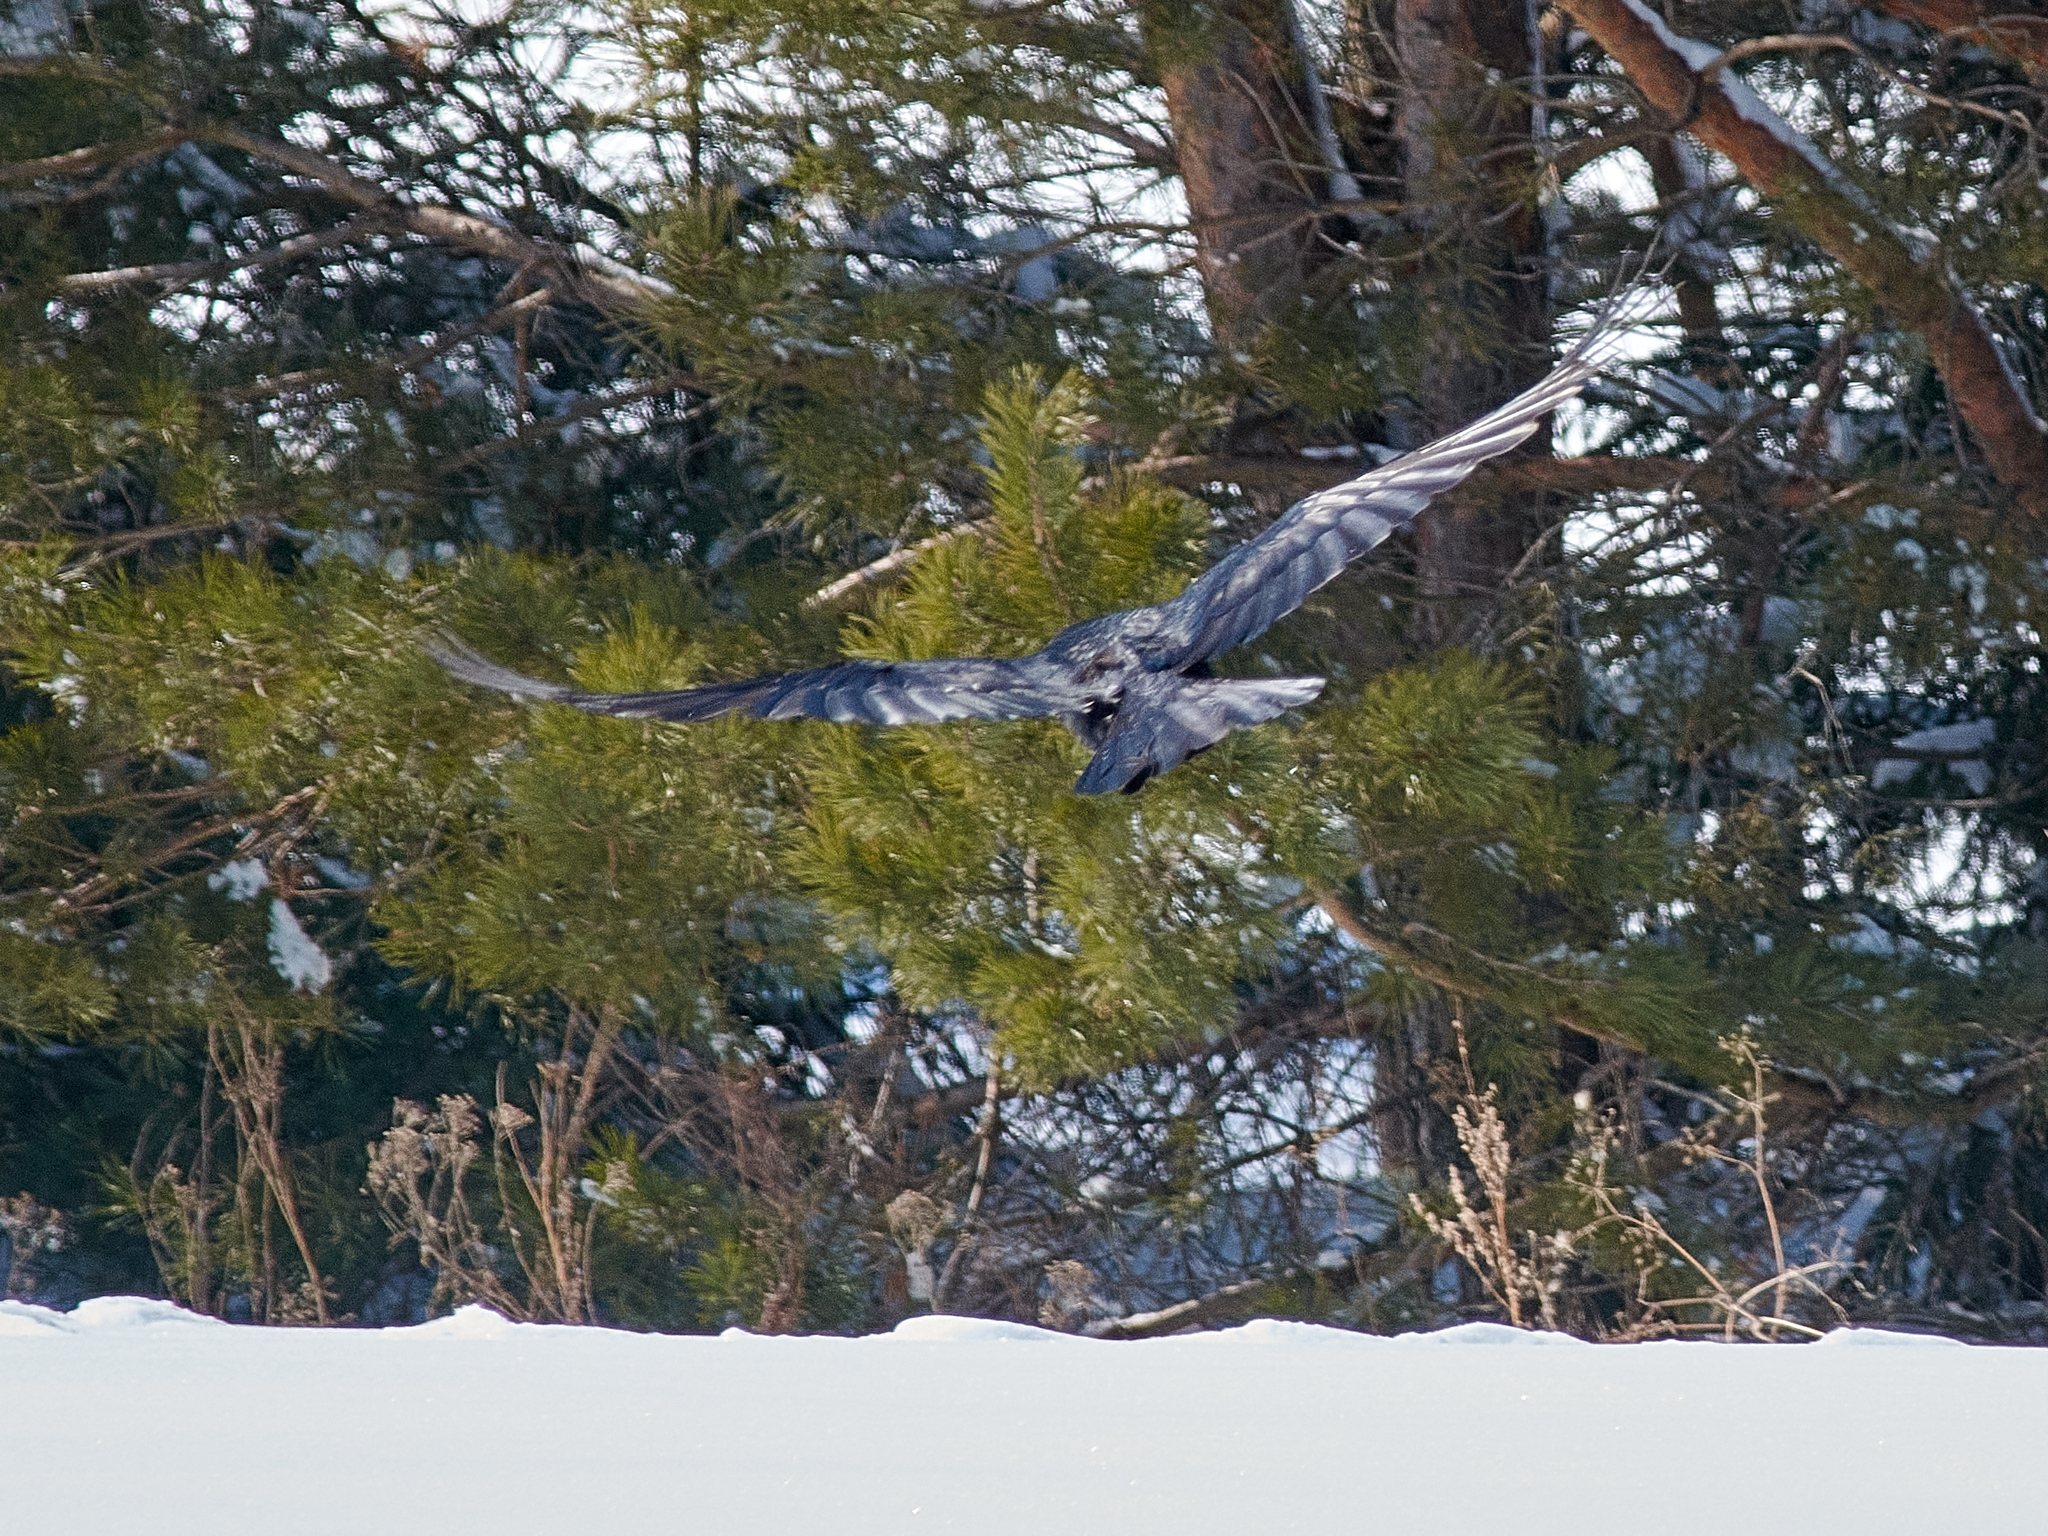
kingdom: Animalia
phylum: Chordata
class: Aves
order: Passeriformes
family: Corvidae
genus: Corvus
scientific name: Corvus corax
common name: Common raven
